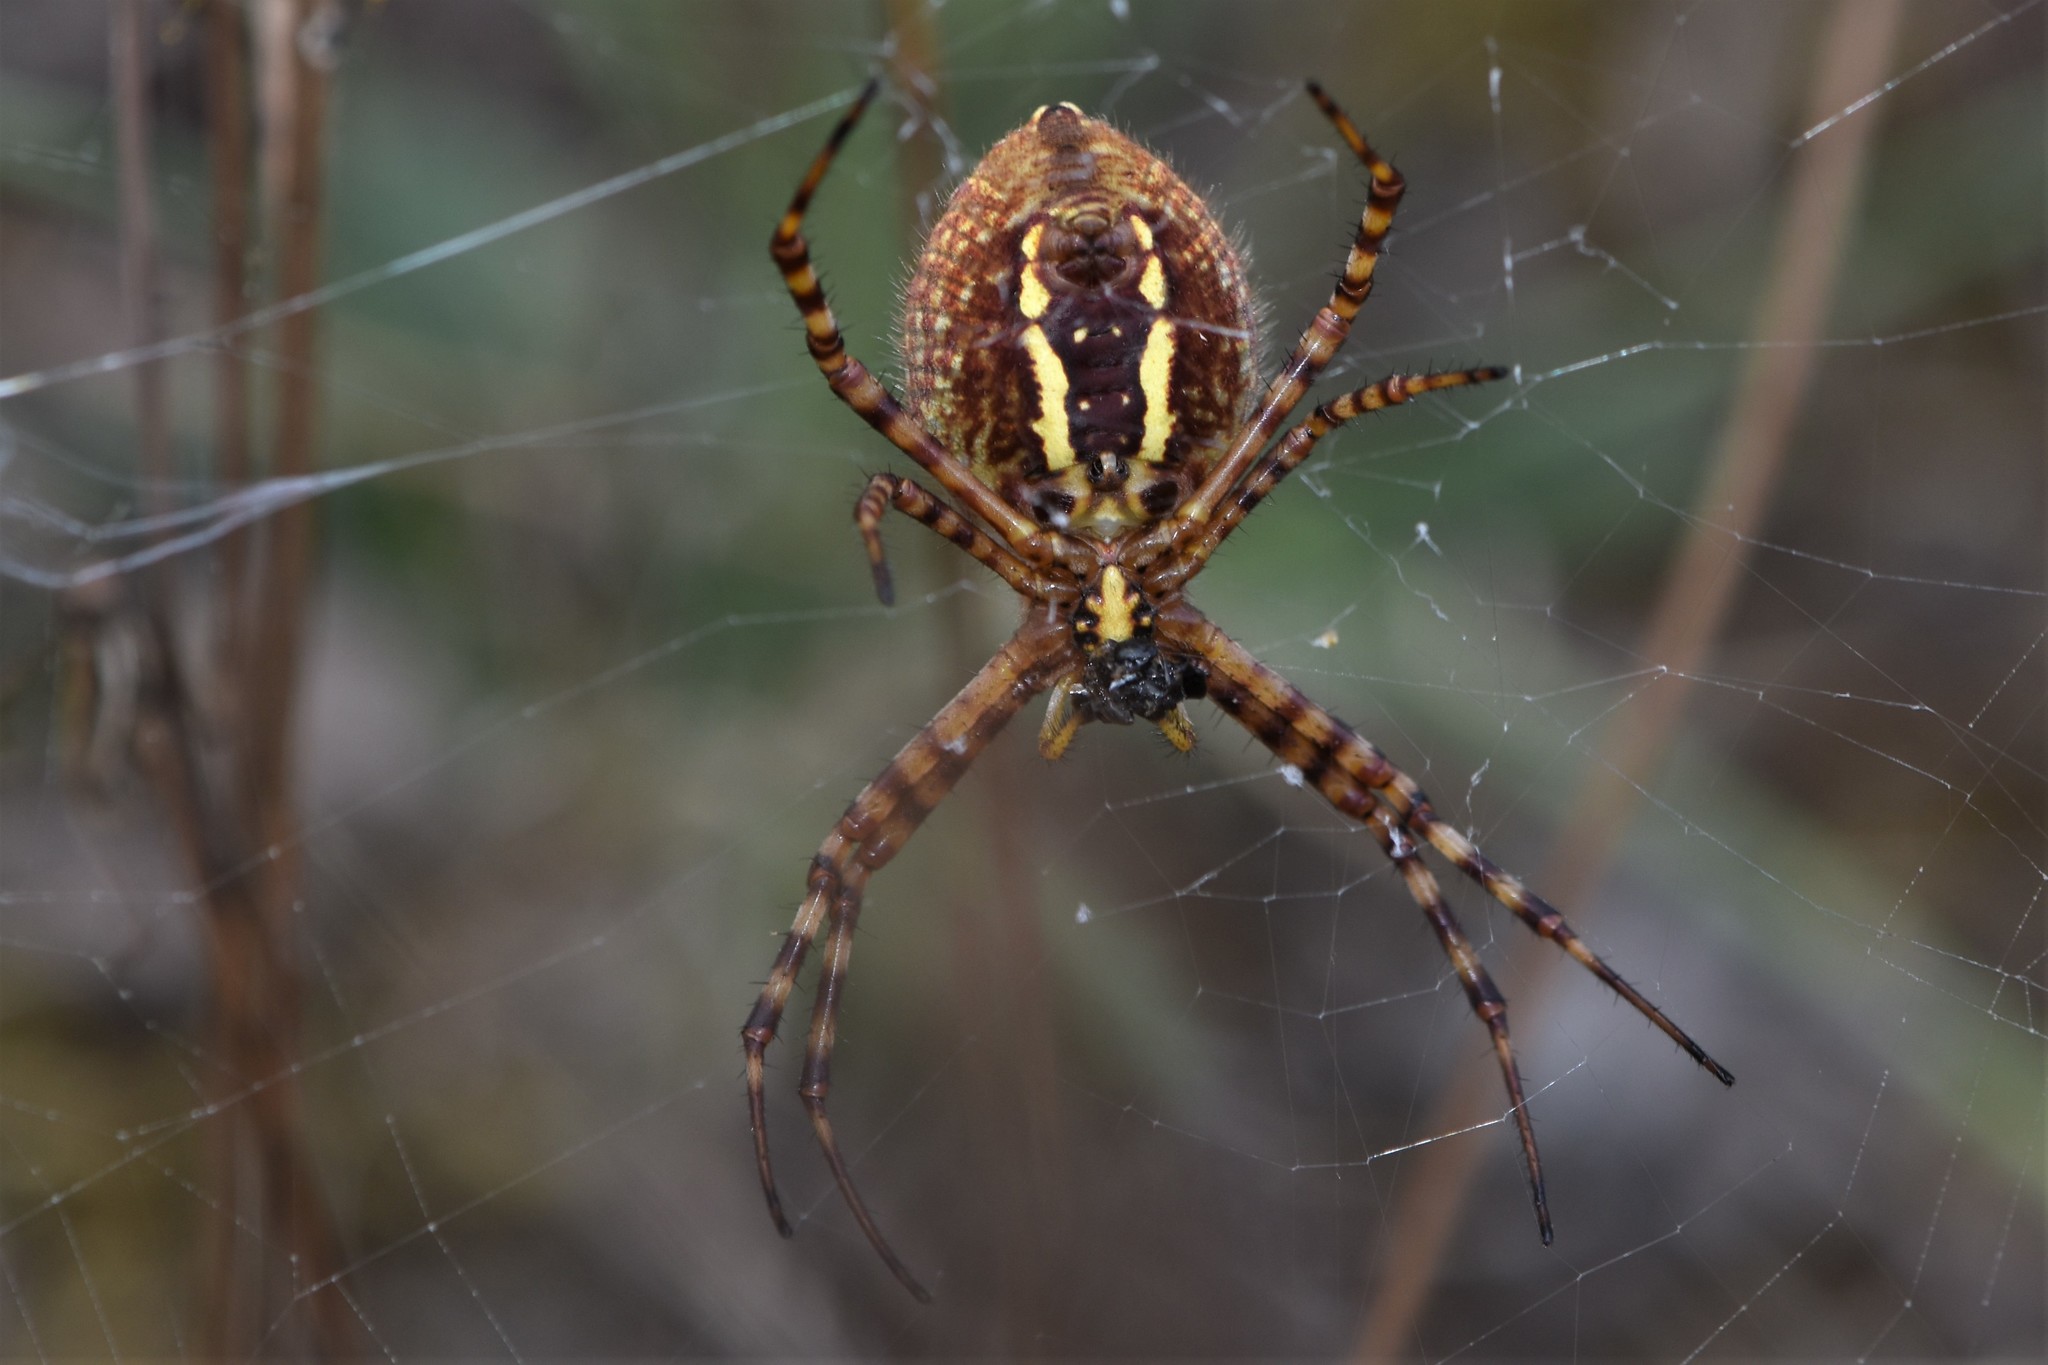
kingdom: Animalia
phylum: Arthropoda
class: Arachnida
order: Araneae
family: Araneidae
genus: Argiope
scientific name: Argiope trifasciata
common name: Banded garden spider
